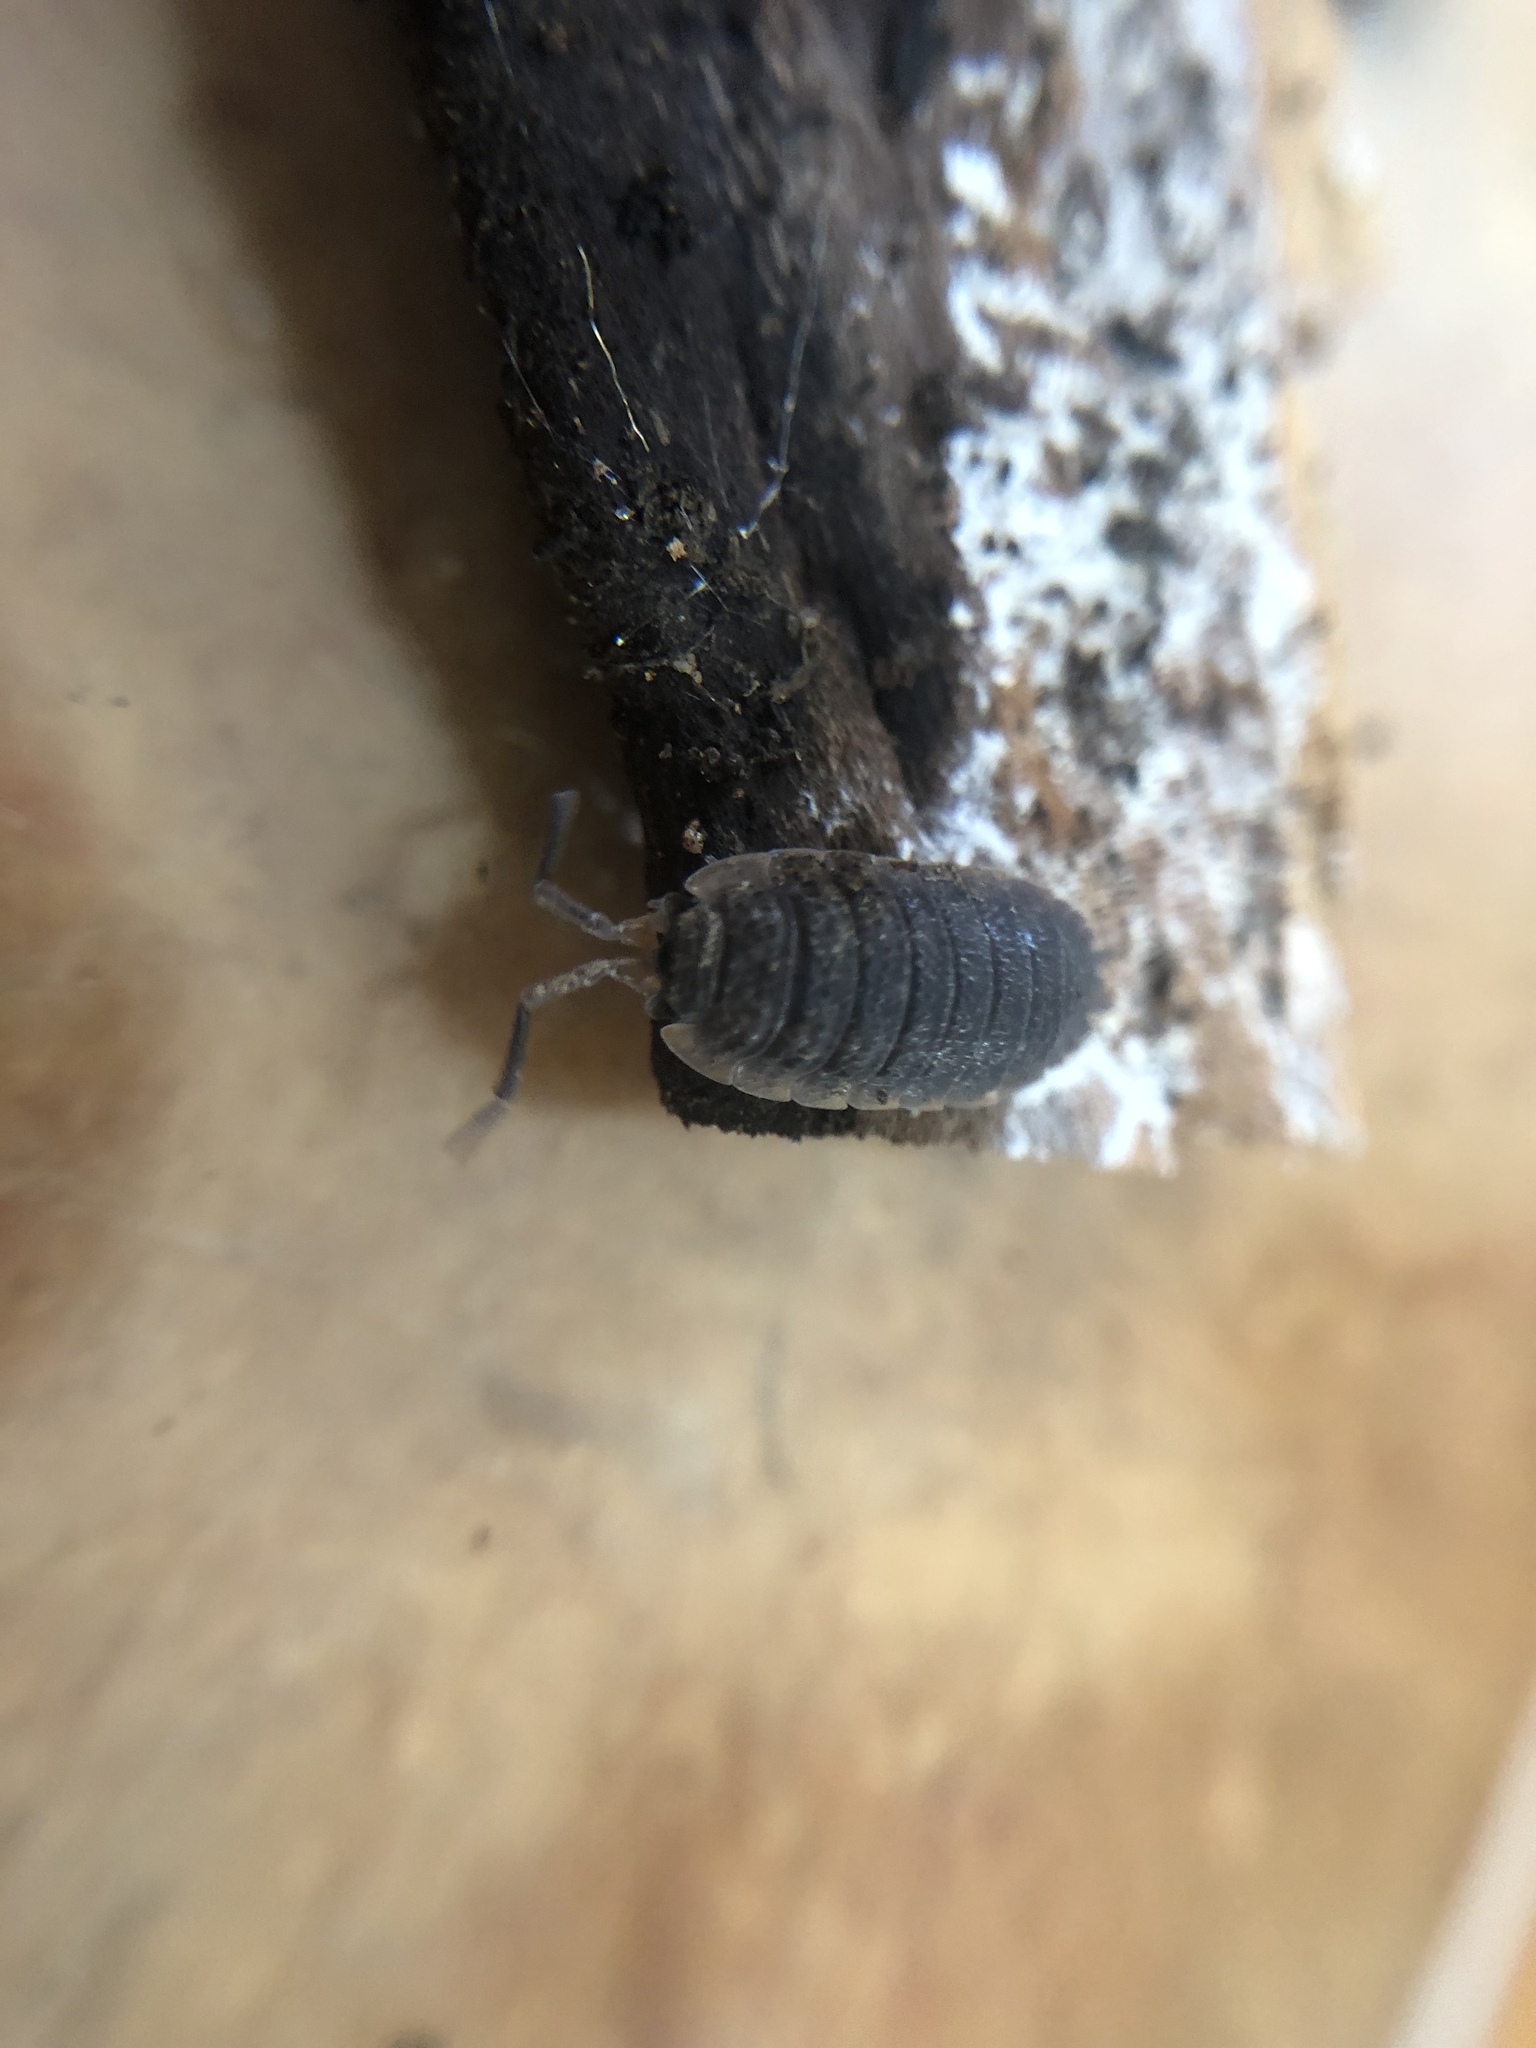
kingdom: Animalia
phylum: Arthropoda
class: Malacostraca
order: Isopoda
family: Porcellionidae
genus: Porcellio
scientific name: Porcellio scaber
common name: Common rough woodlouse
